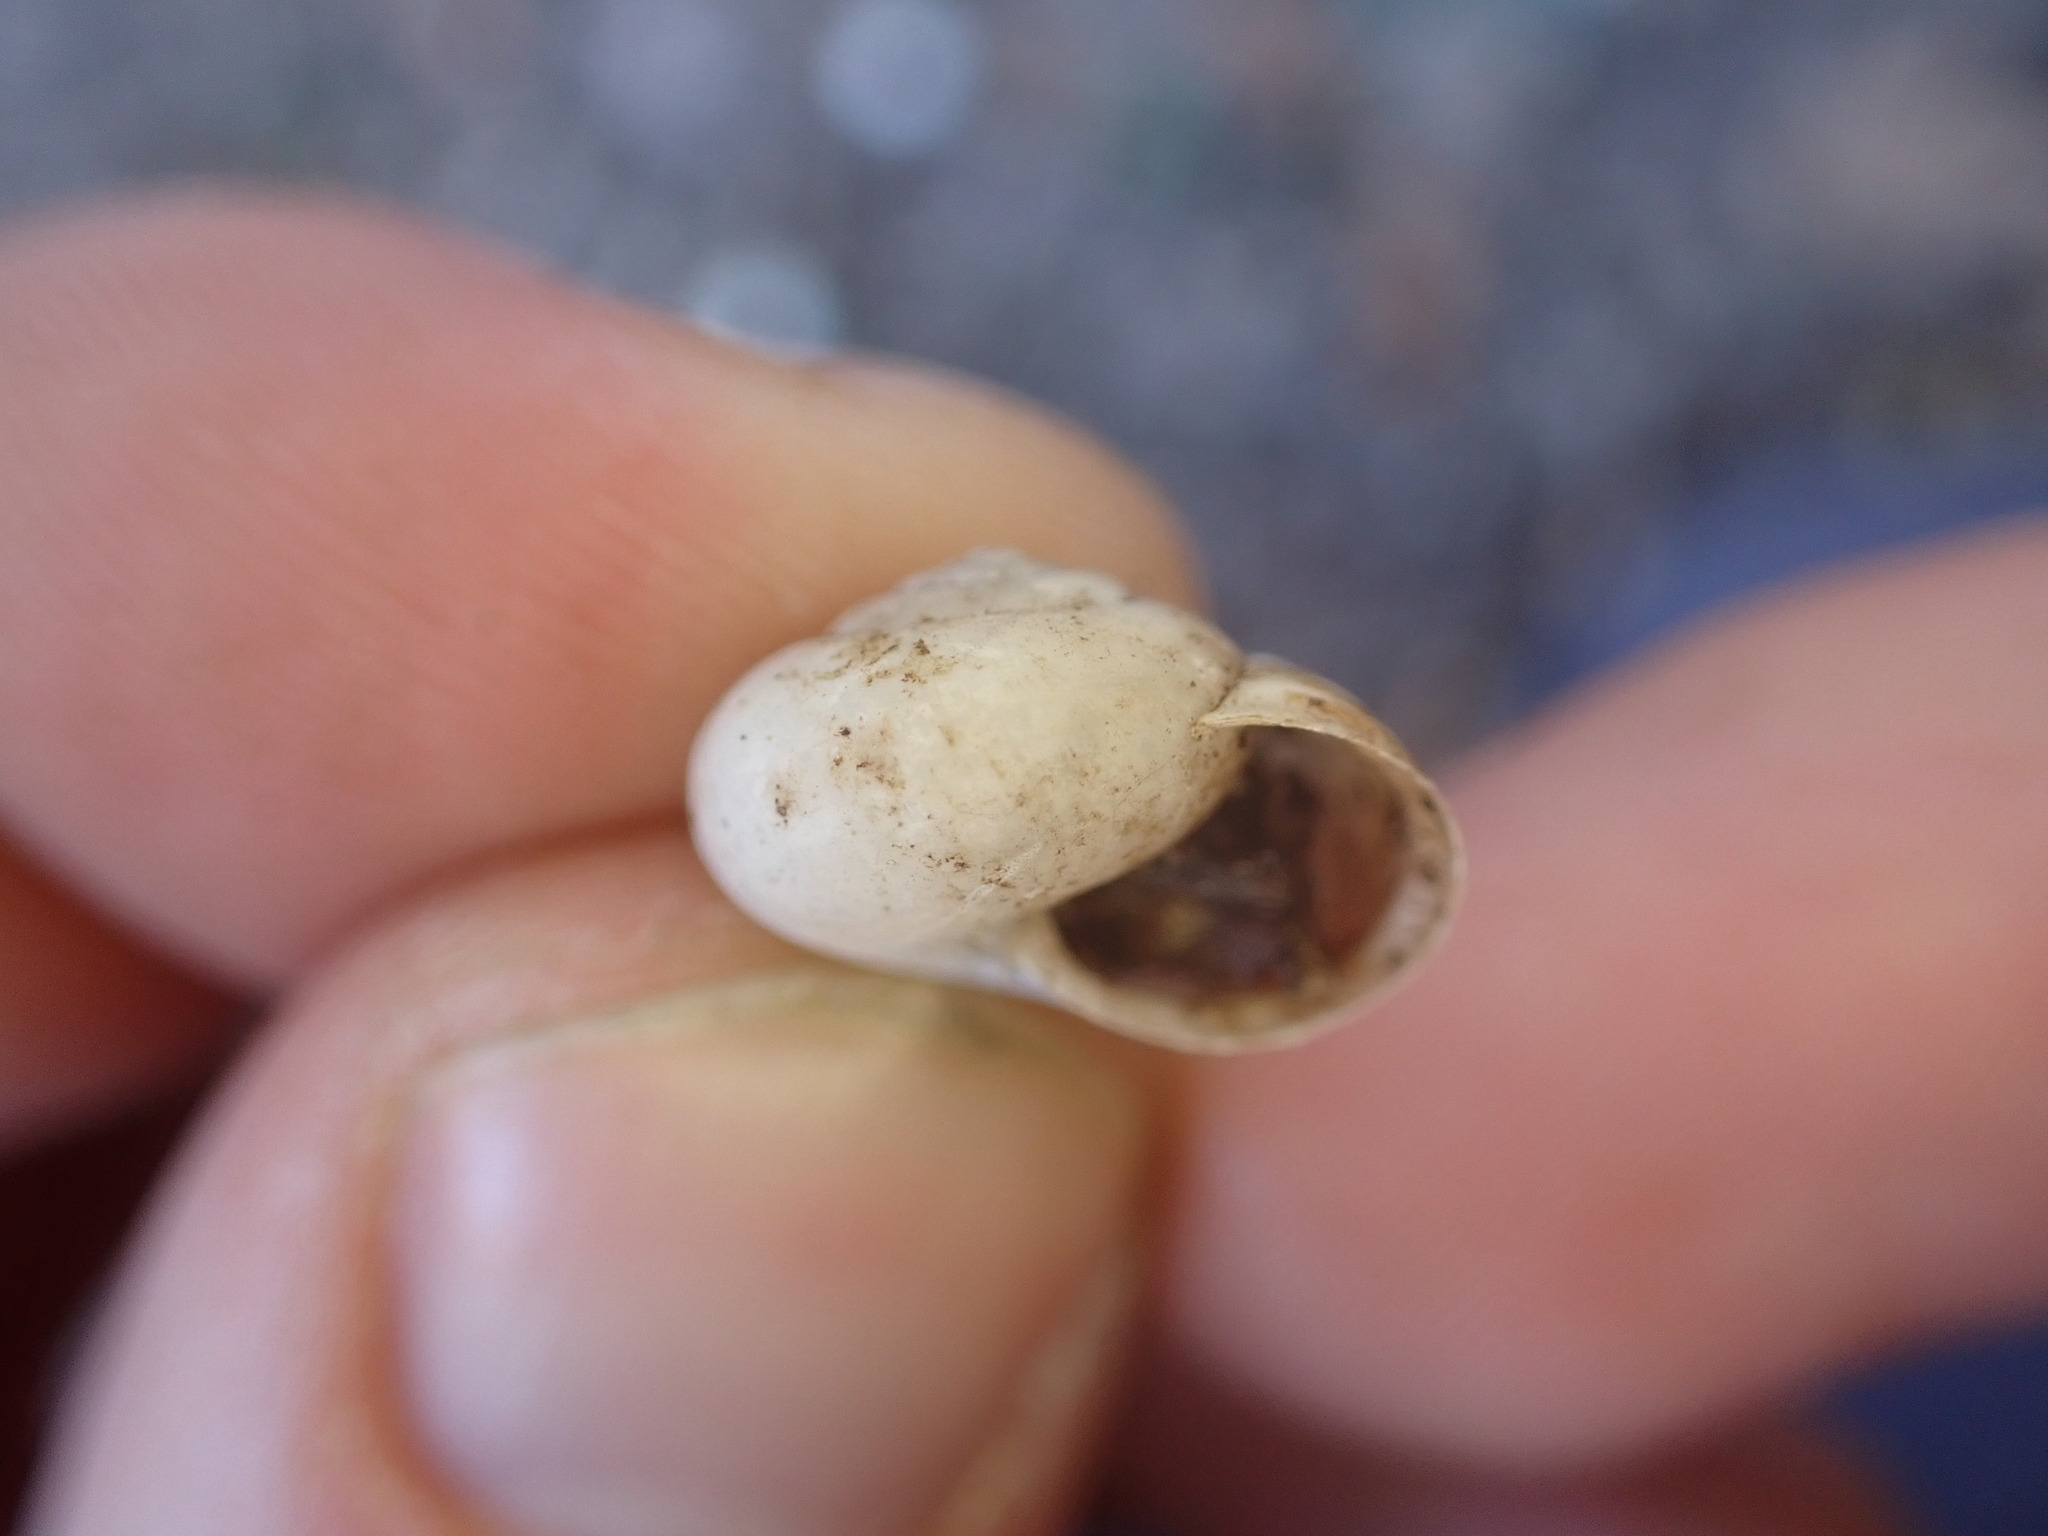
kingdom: Animalia
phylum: Mollusca
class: Gastropoda
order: Stylommatophora
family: Hygromiidae
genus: Monacha
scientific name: Monacha cantiana
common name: Kentish snail
